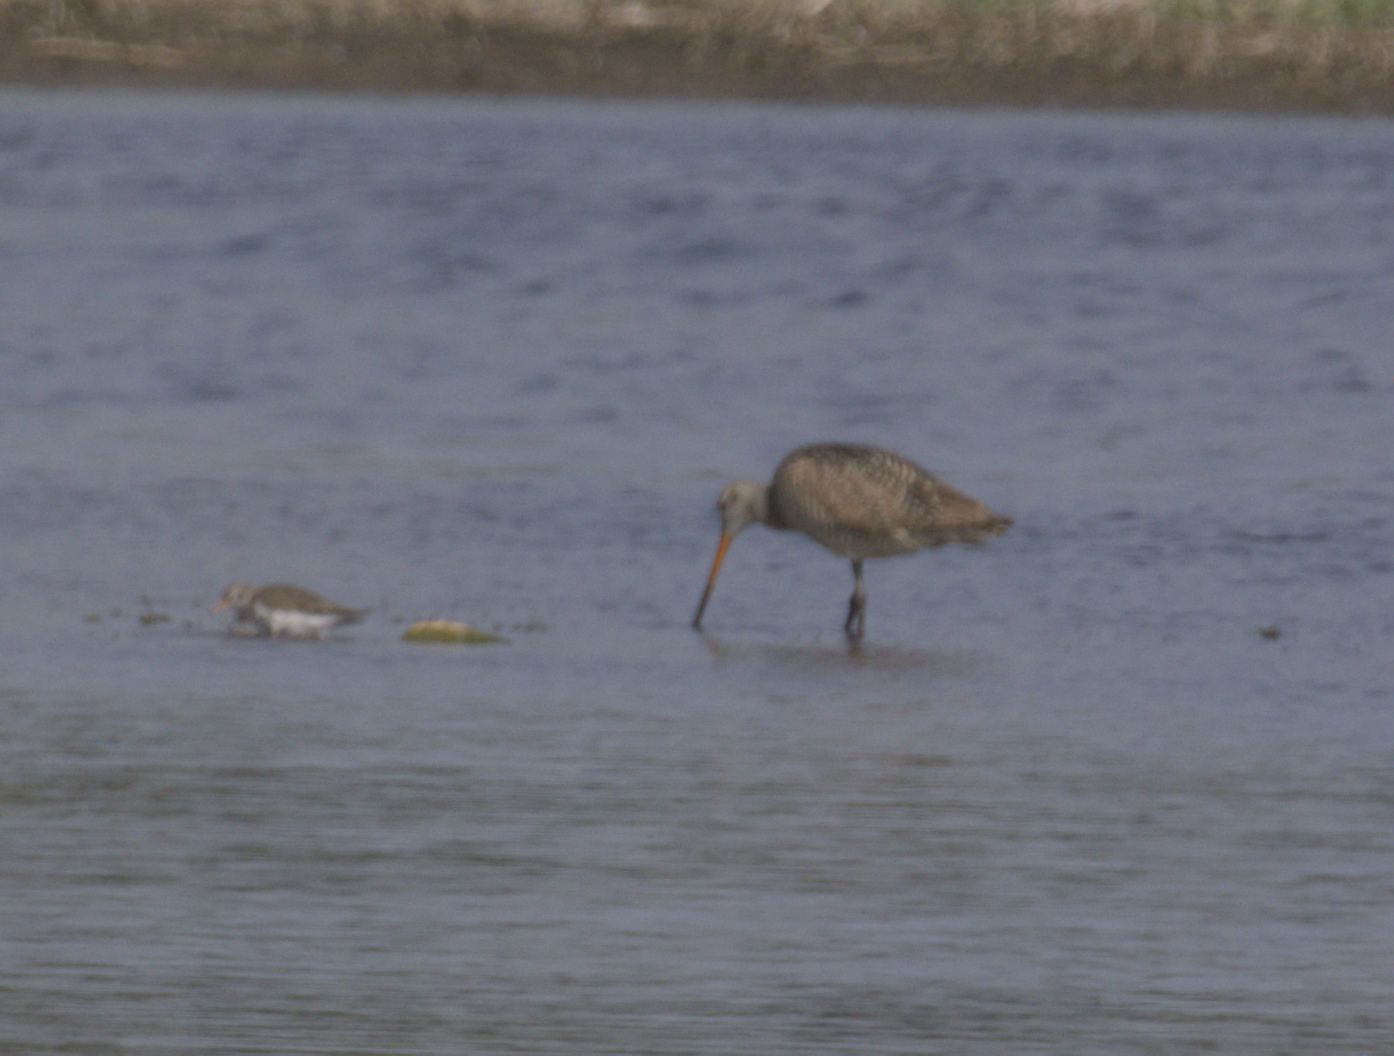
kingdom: Animalia
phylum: Chordata
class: Aves
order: Charadriiformes
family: Scolopacidae
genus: Limosa
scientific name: Limosa fedoa
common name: Marbled godwit
